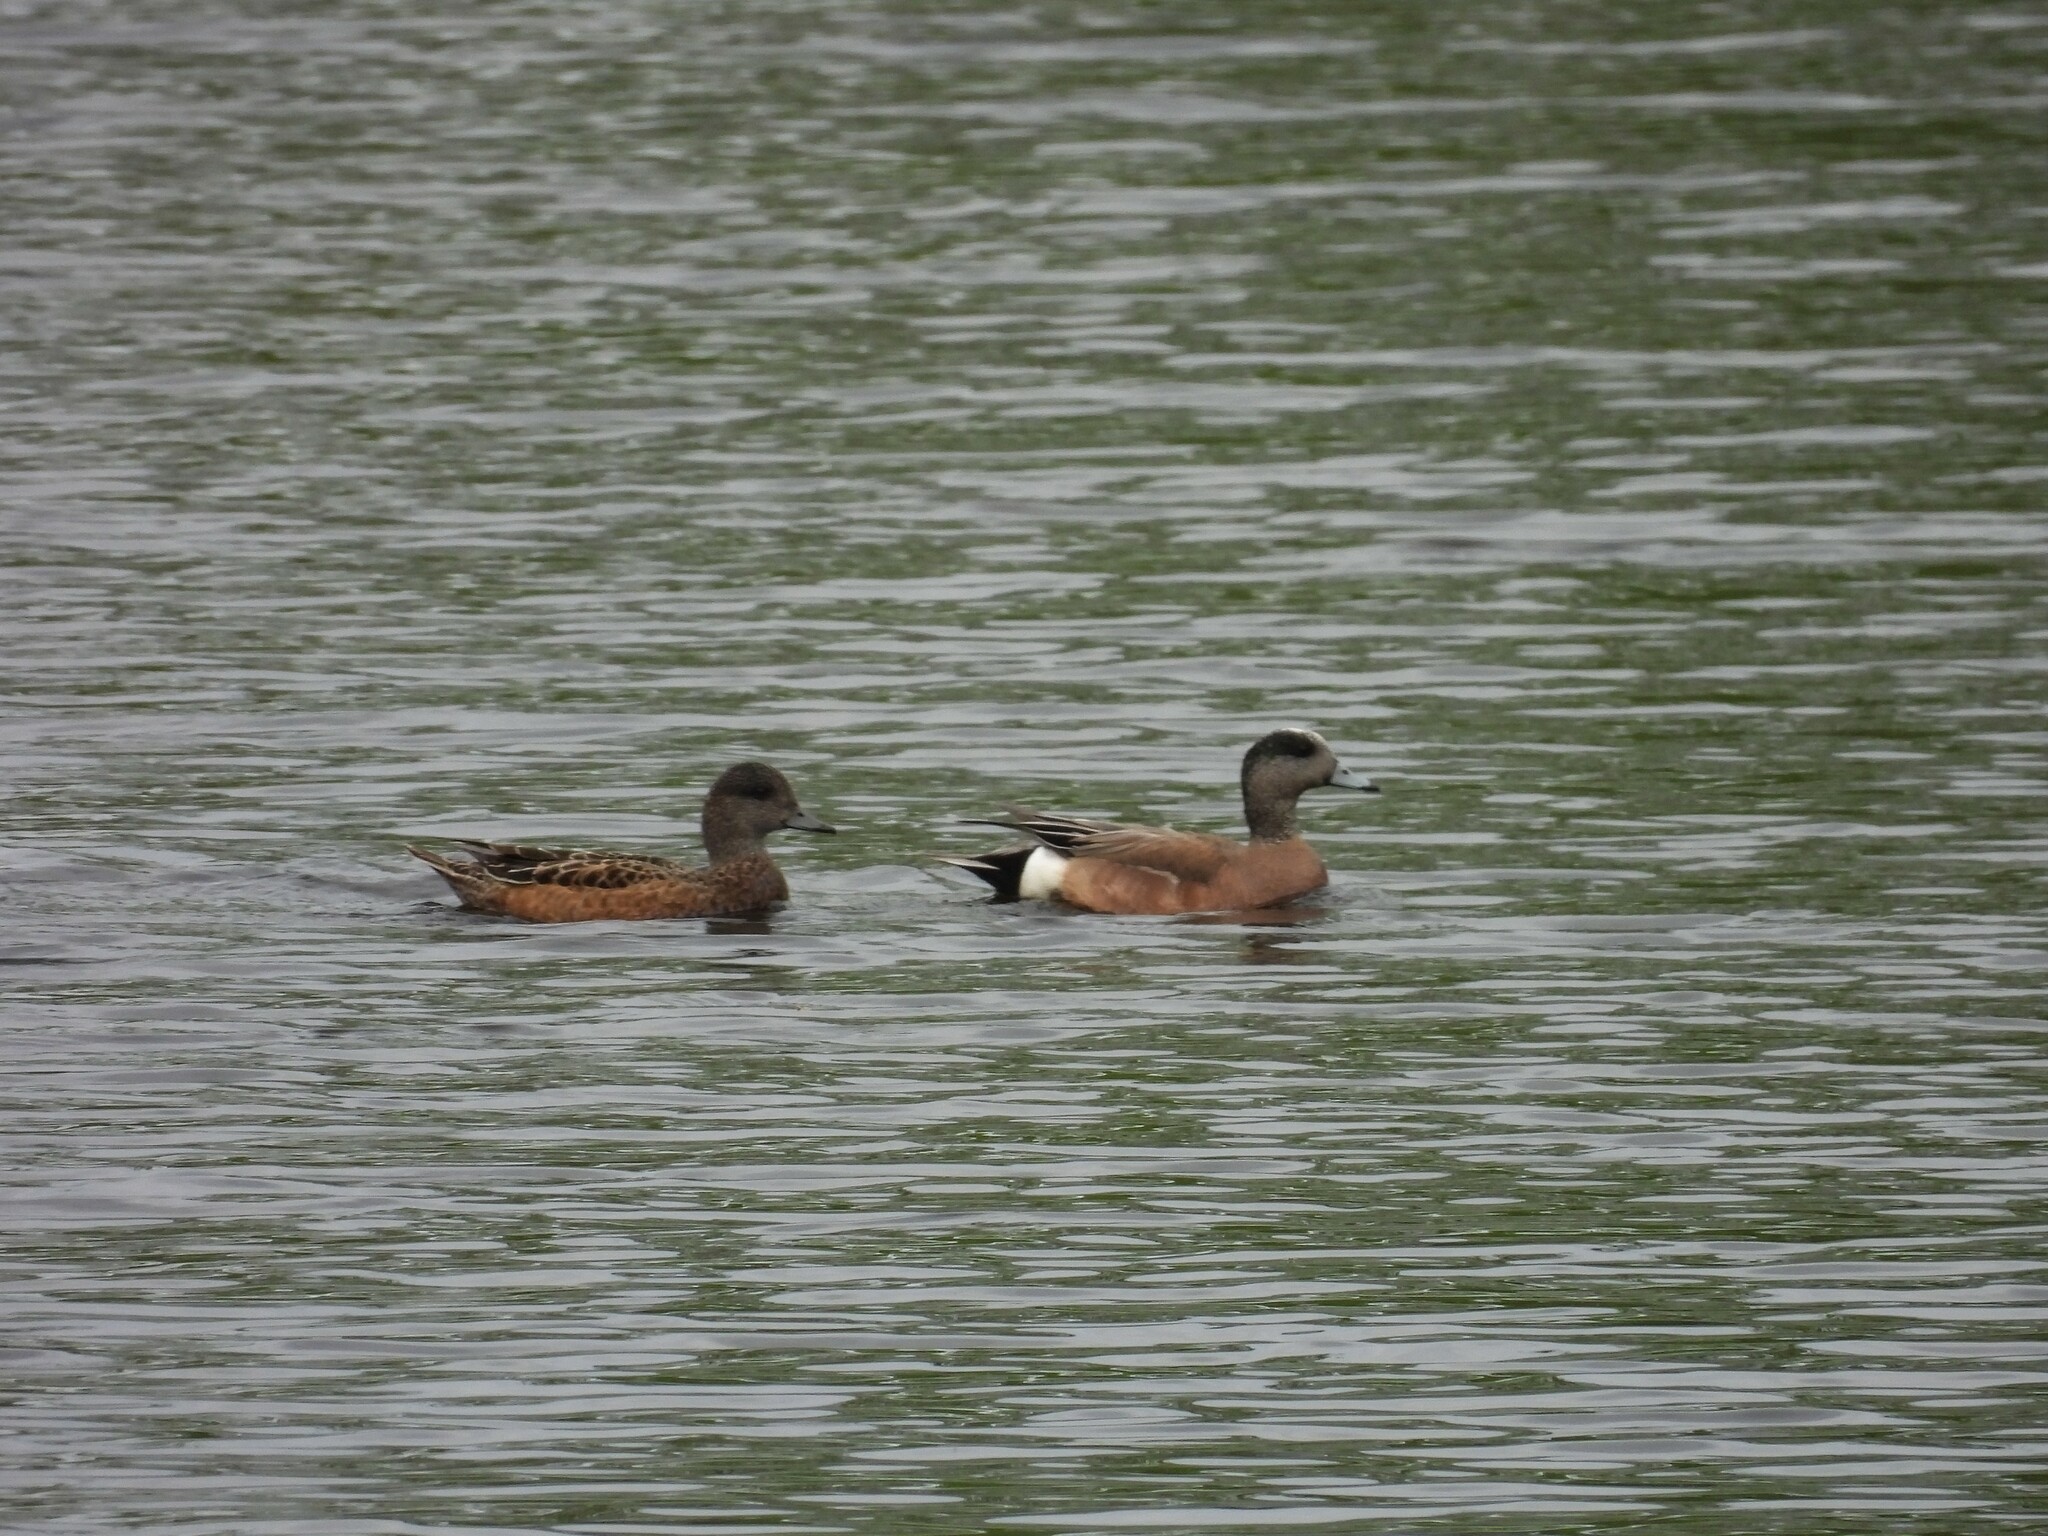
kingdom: Animalia
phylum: Chordata
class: Aves
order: Anseriformes
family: Anatidae
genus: Mareca
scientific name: Mareca americana
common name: American wigeon
